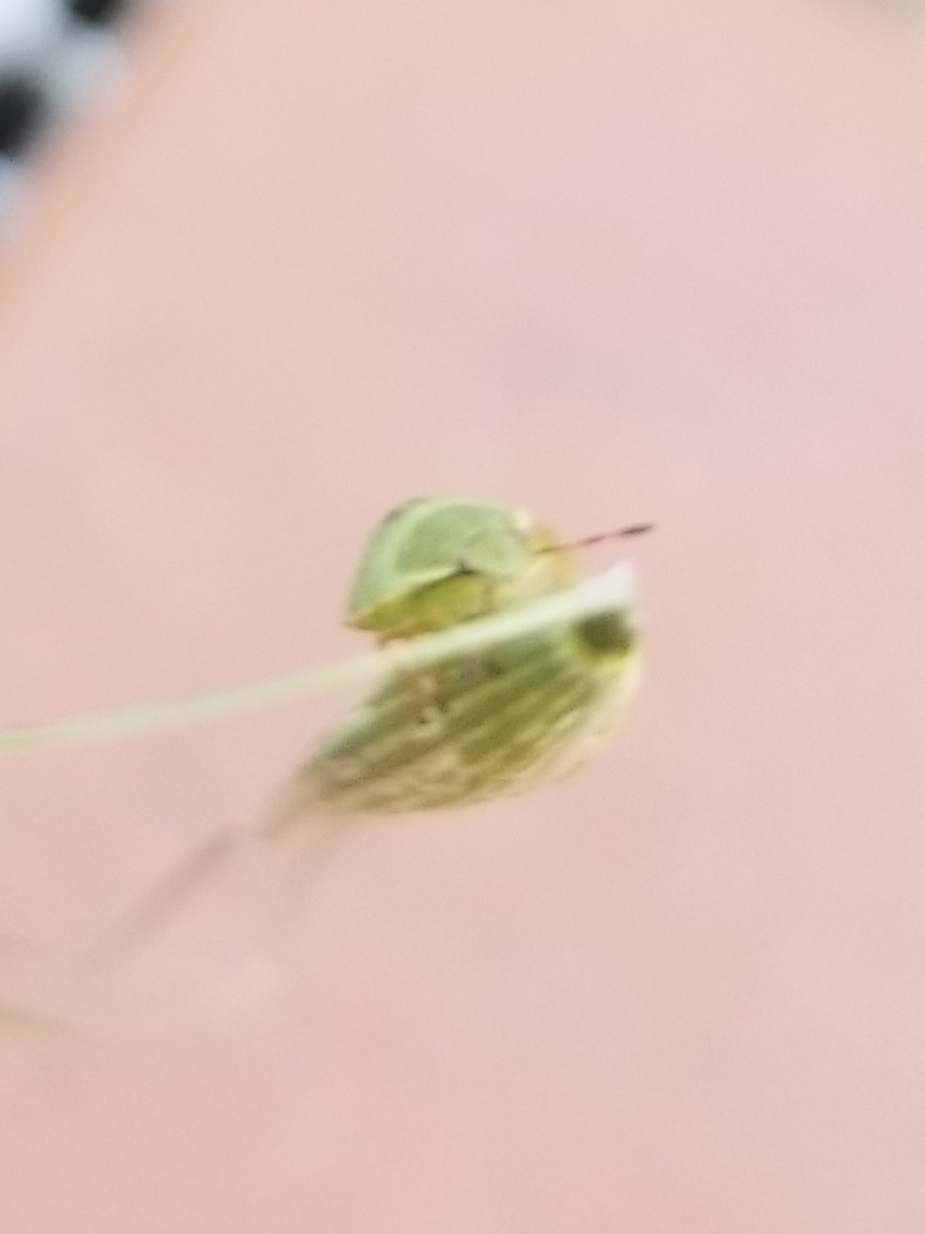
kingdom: Animalia
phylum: Arthropoda
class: Insecta
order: Hemiptera
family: Pentatomidae
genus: Palomena
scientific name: Palomena prasina
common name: Green shieldbug
